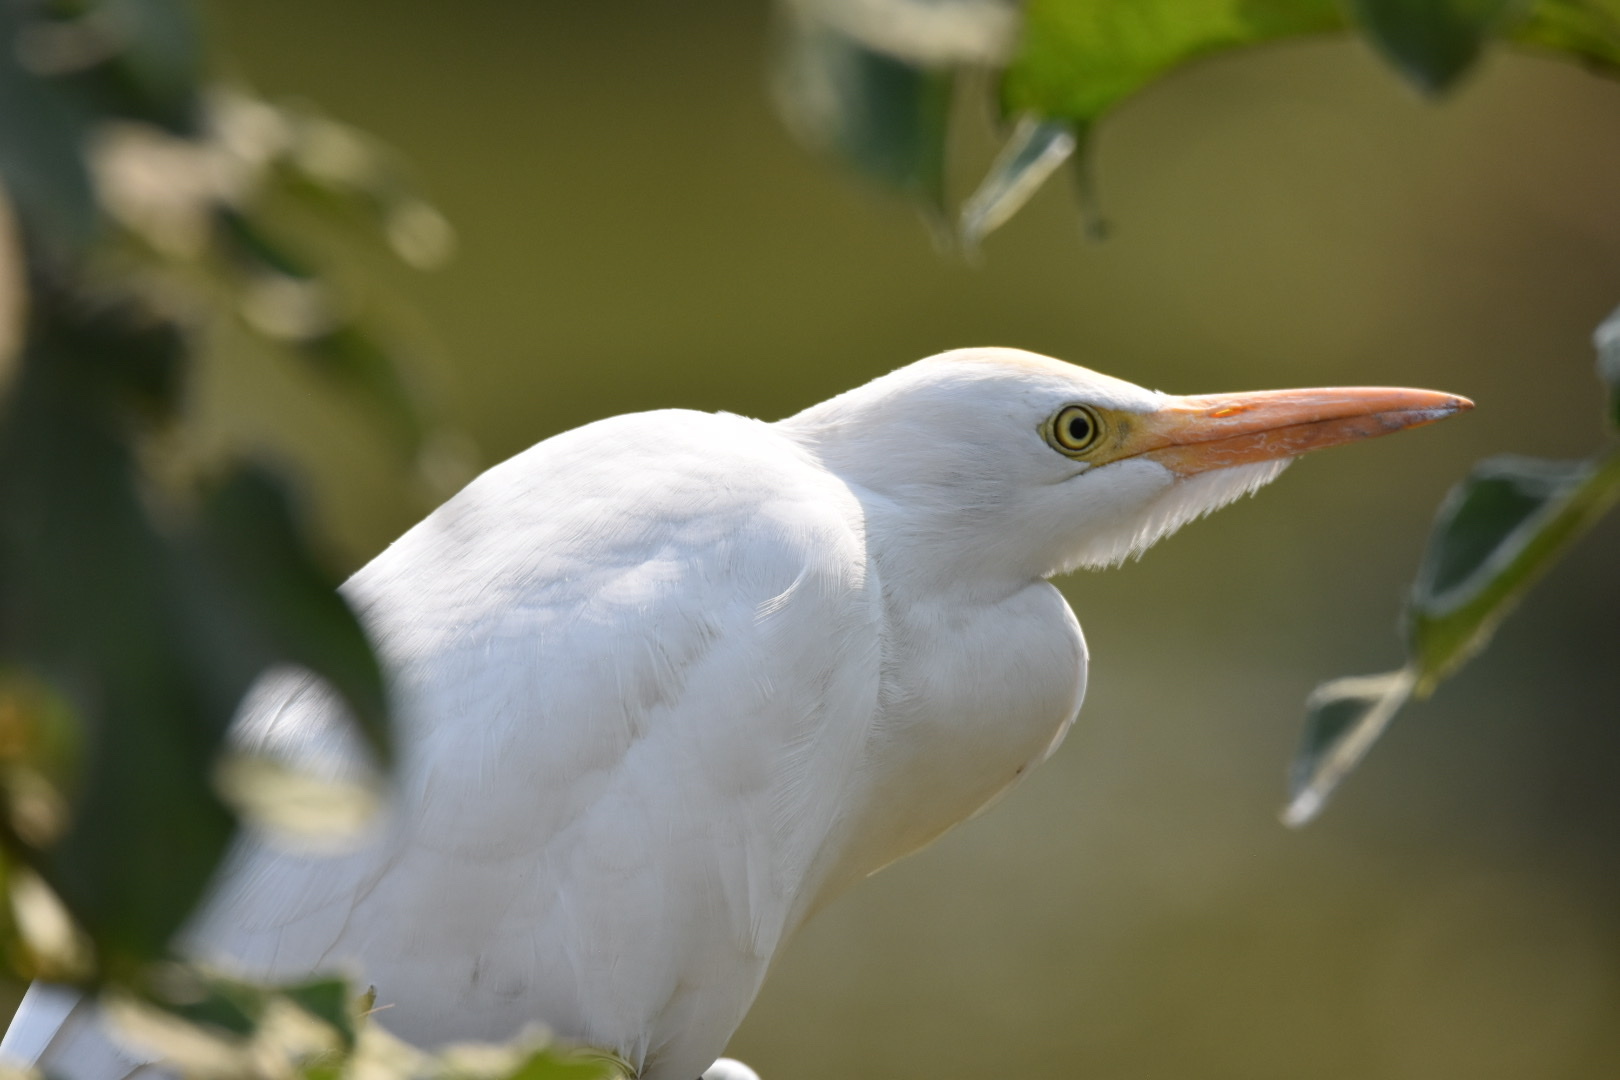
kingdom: Animalia
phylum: Chordata
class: Aves
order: Pelecaniformes
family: Ardeidae
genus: Bubulcus
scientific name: Bubulcus ibis
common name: Cattle egret
